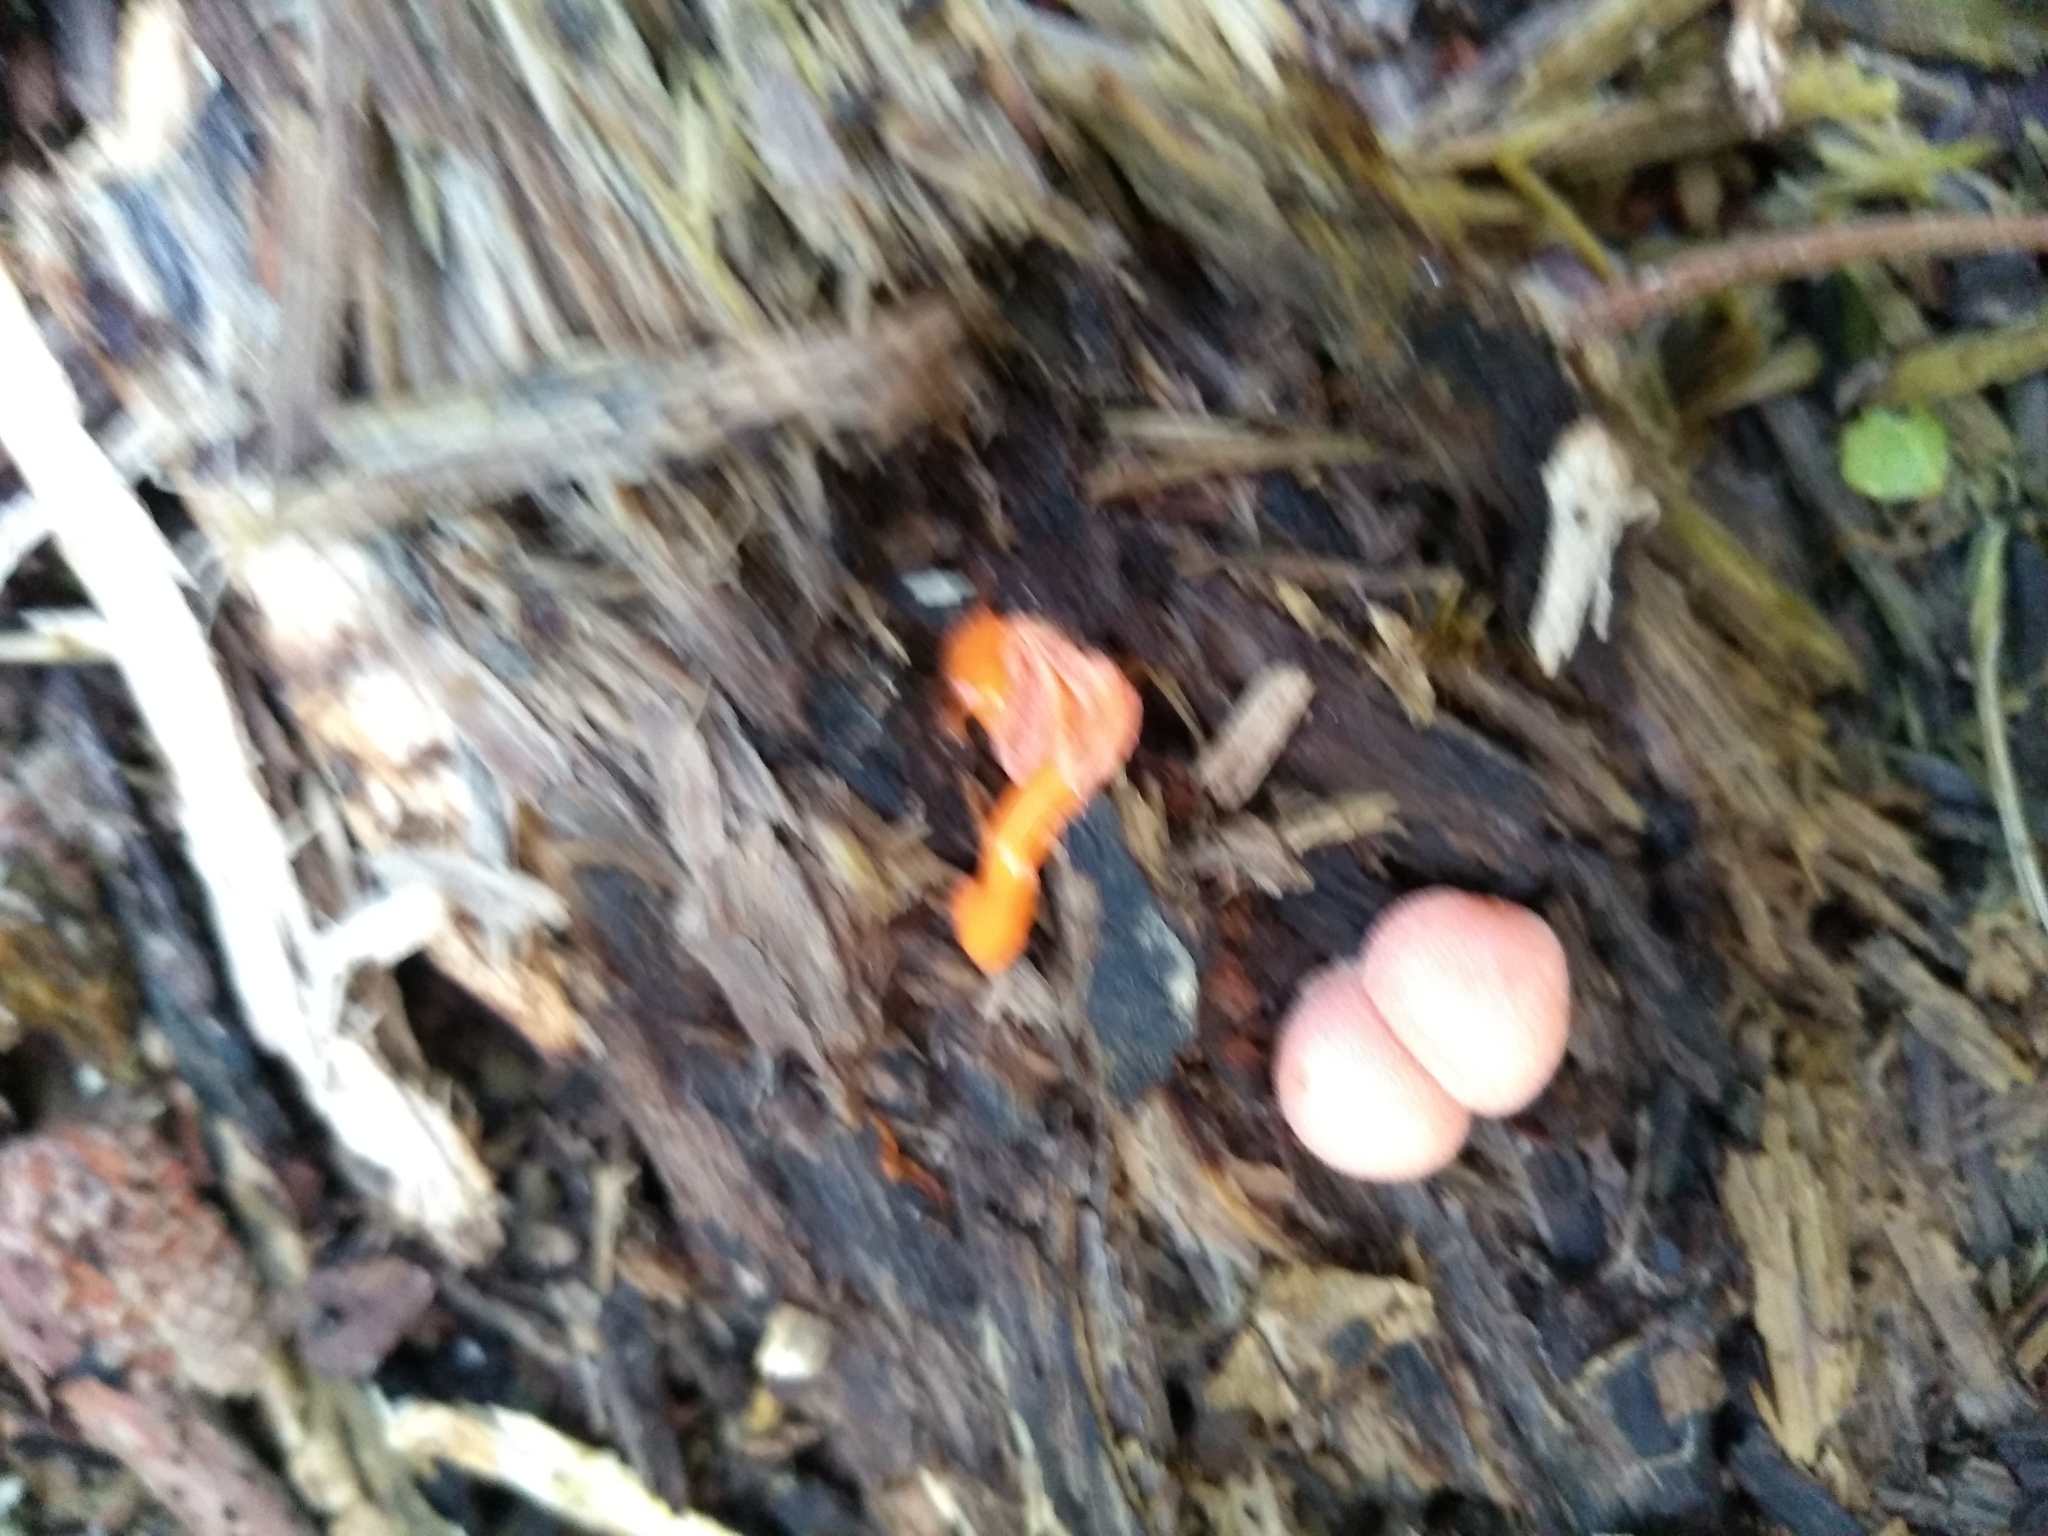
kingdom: Protozoa
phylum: Mycetozoa
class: Myxomycetes
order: Cribrariales
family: Tubiferaceae
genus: Lycogala
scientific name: Lycogala epidendrum
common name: Wolf's milk
